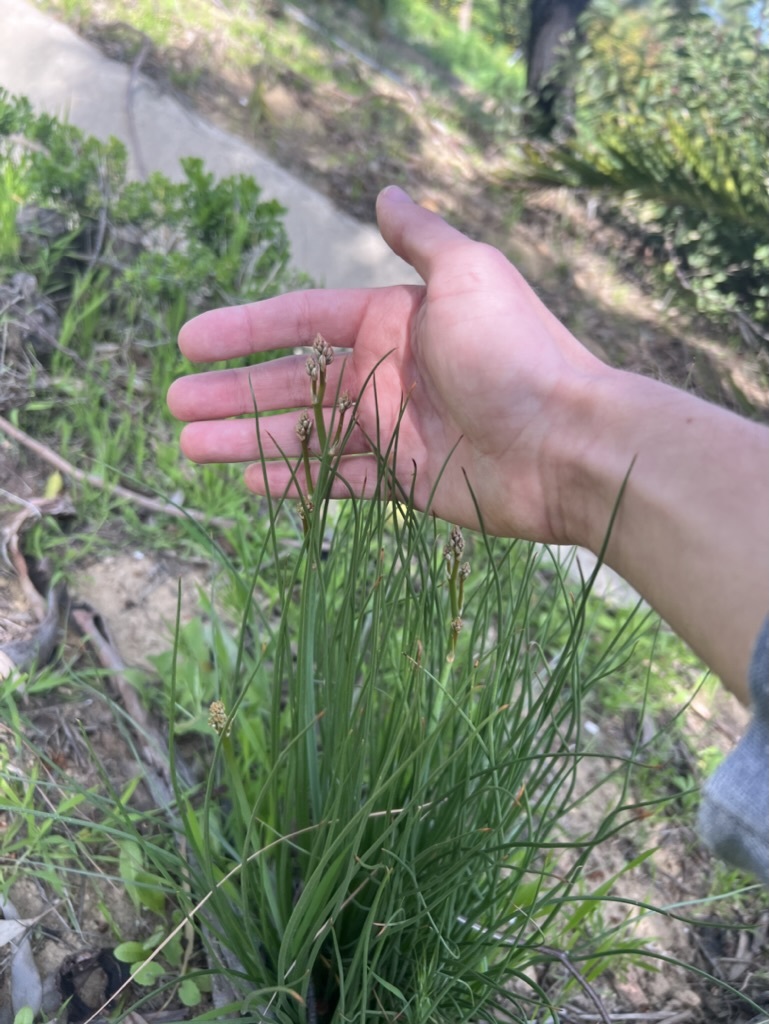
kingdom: Plantae
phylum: Tracheophyta
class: Liliopsida
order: Asparagales
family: Asphodelaceae
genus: Asphodelus
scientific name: Asphodelus fistulosus
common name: Onionweed
